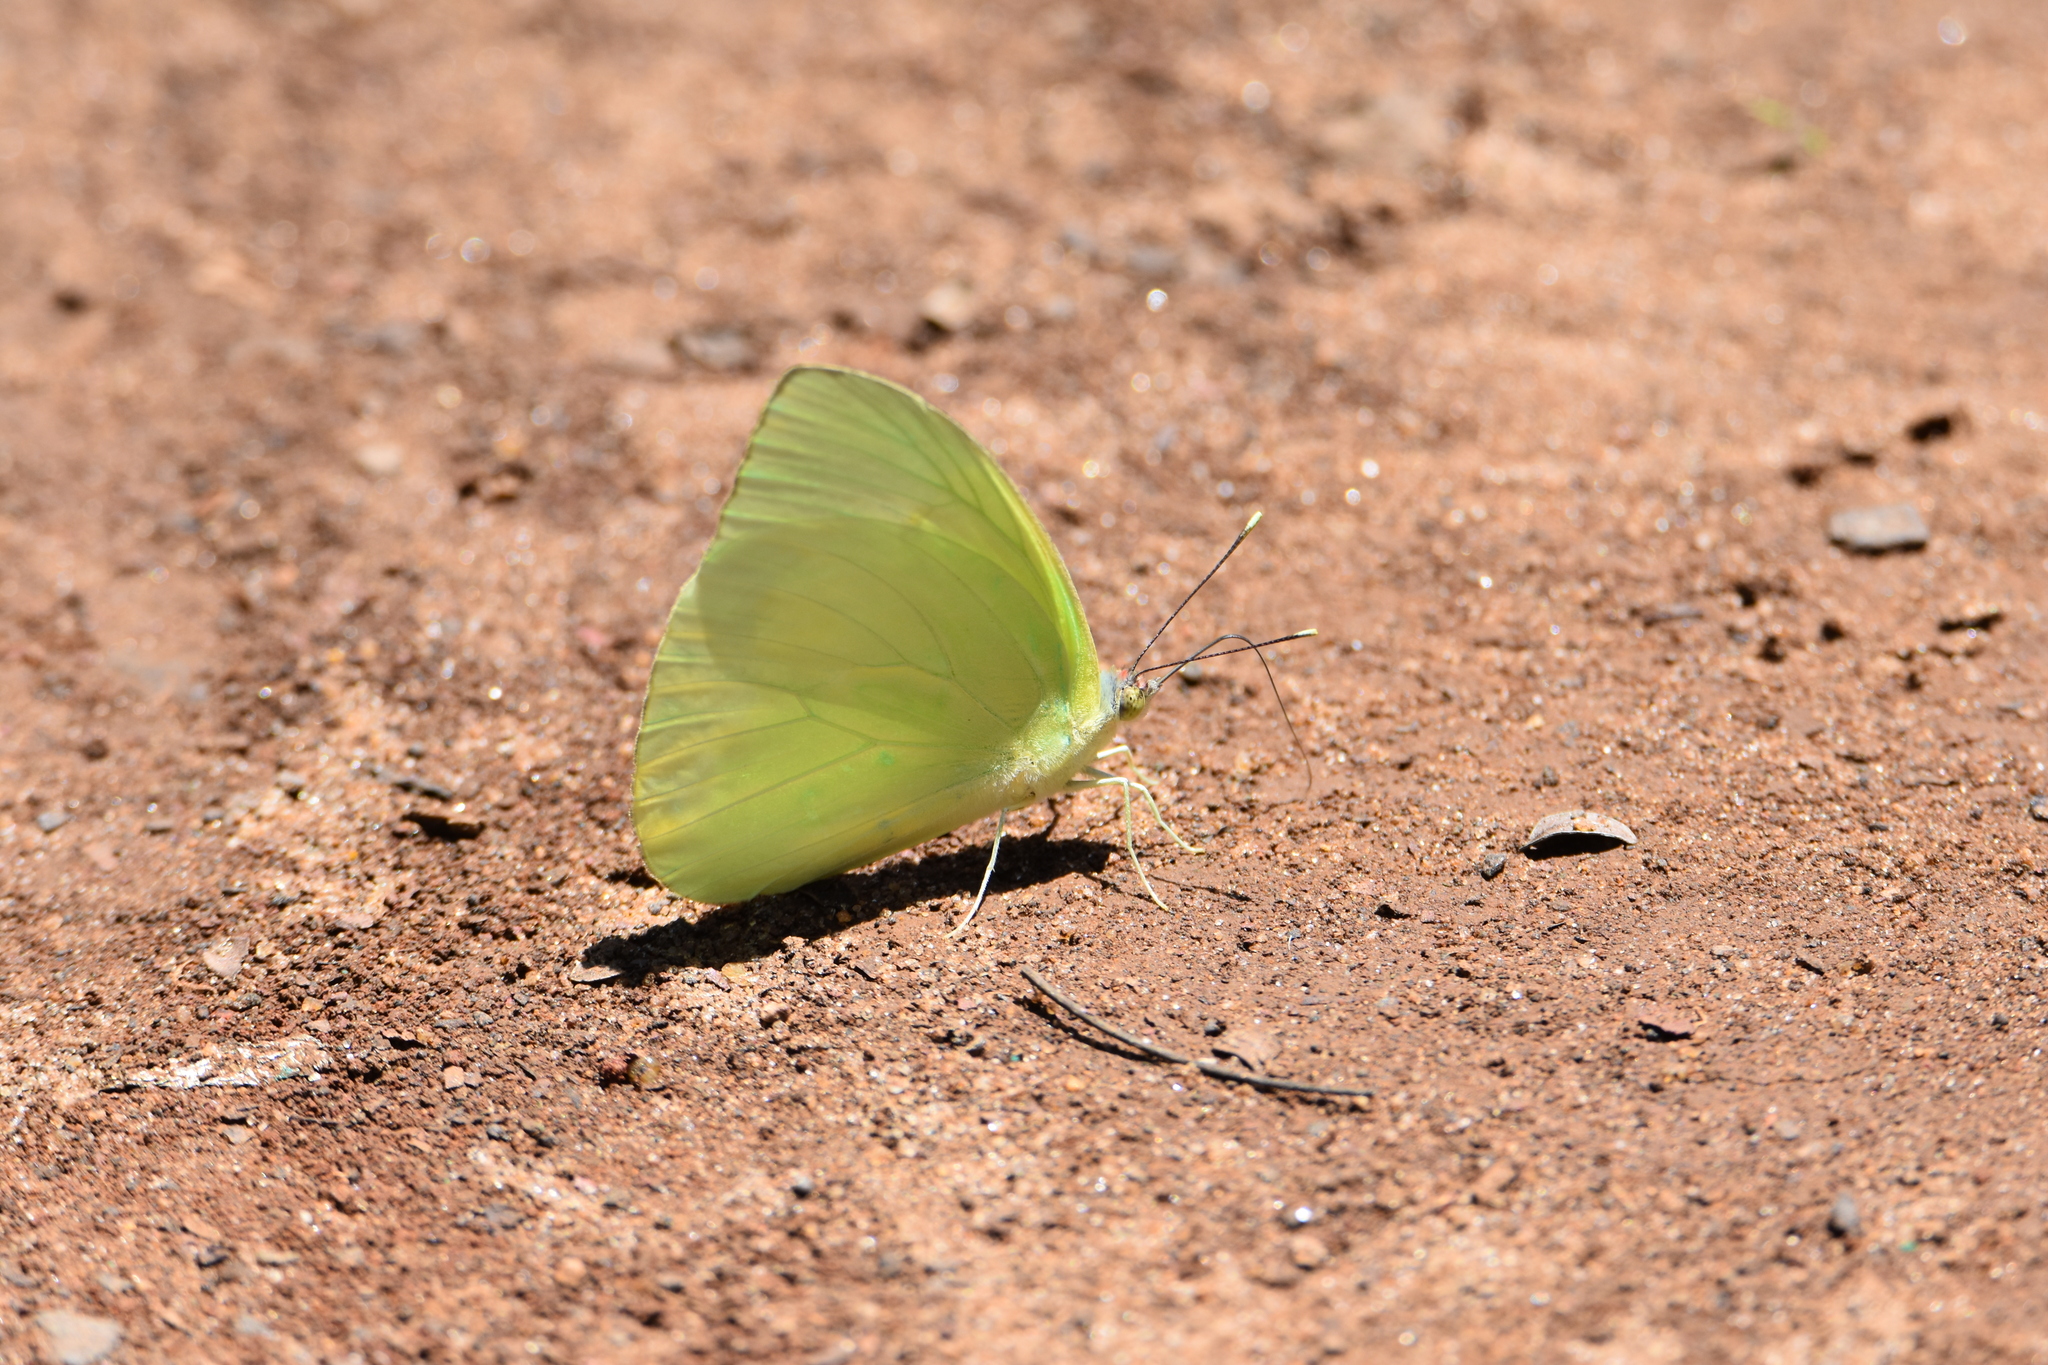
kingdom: Animalia
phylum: Arthropoda
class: Insecta
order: Lepidoptera
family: Pieridae
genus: Aphrissa
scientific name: Aphrissa statira
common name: Statira sulphur
